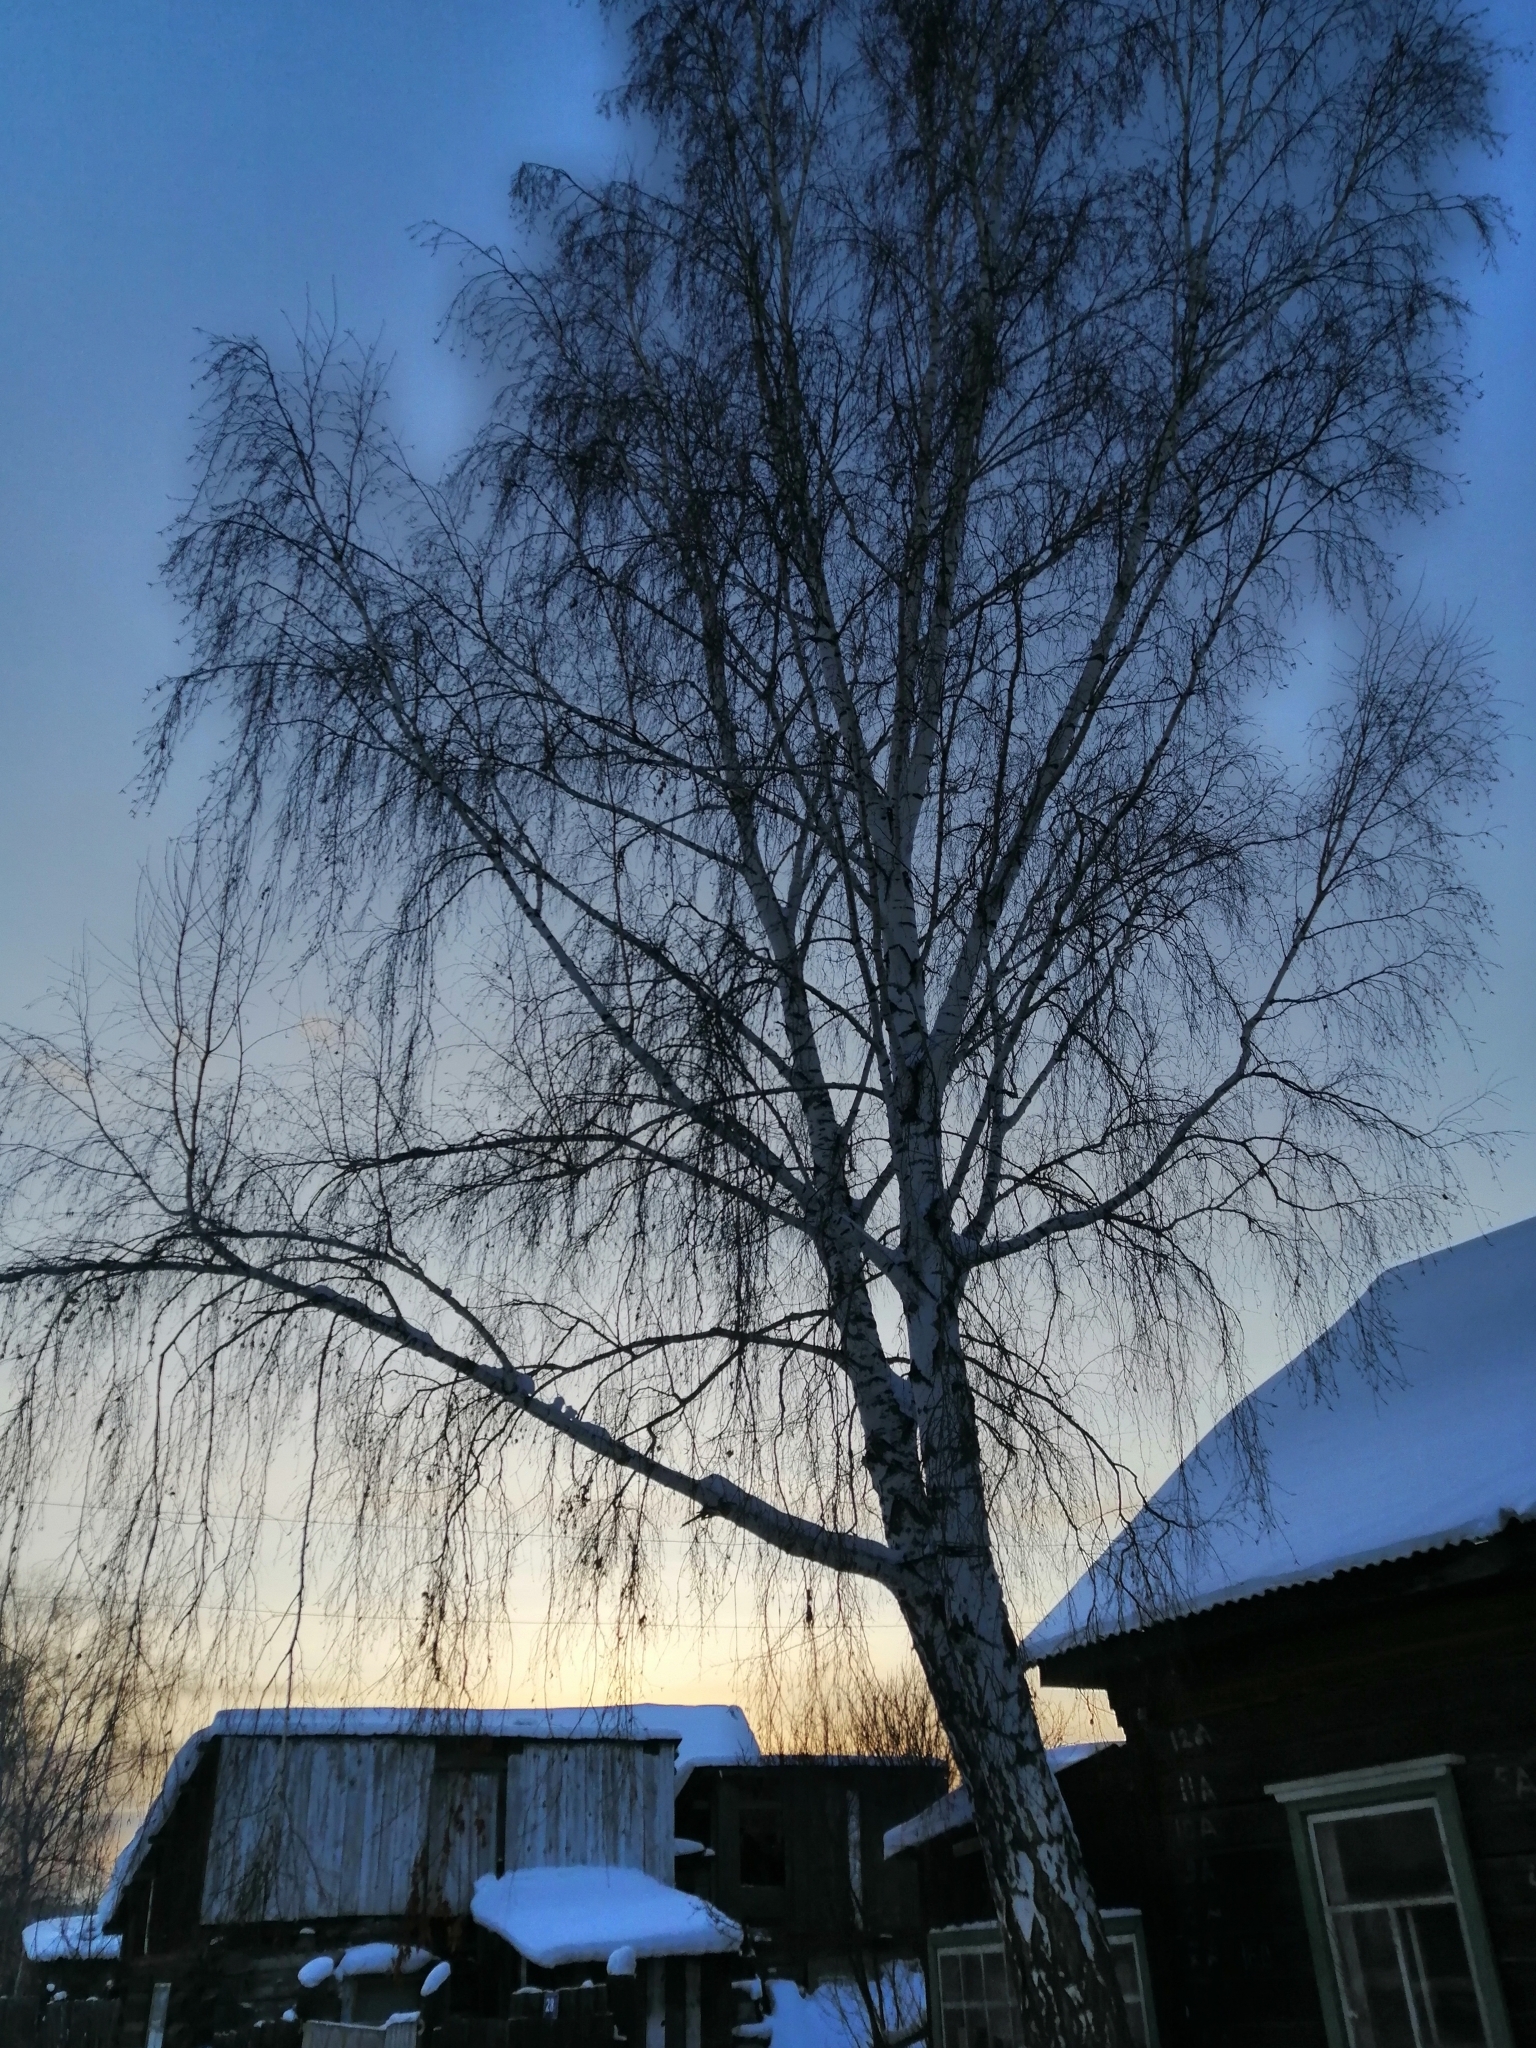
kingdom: Plantae
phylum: Tracheophyta
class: Magnoliopsida
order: Fagales
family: Betulaceae
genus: Betula
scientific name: Betula pendula
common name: Silver birch
